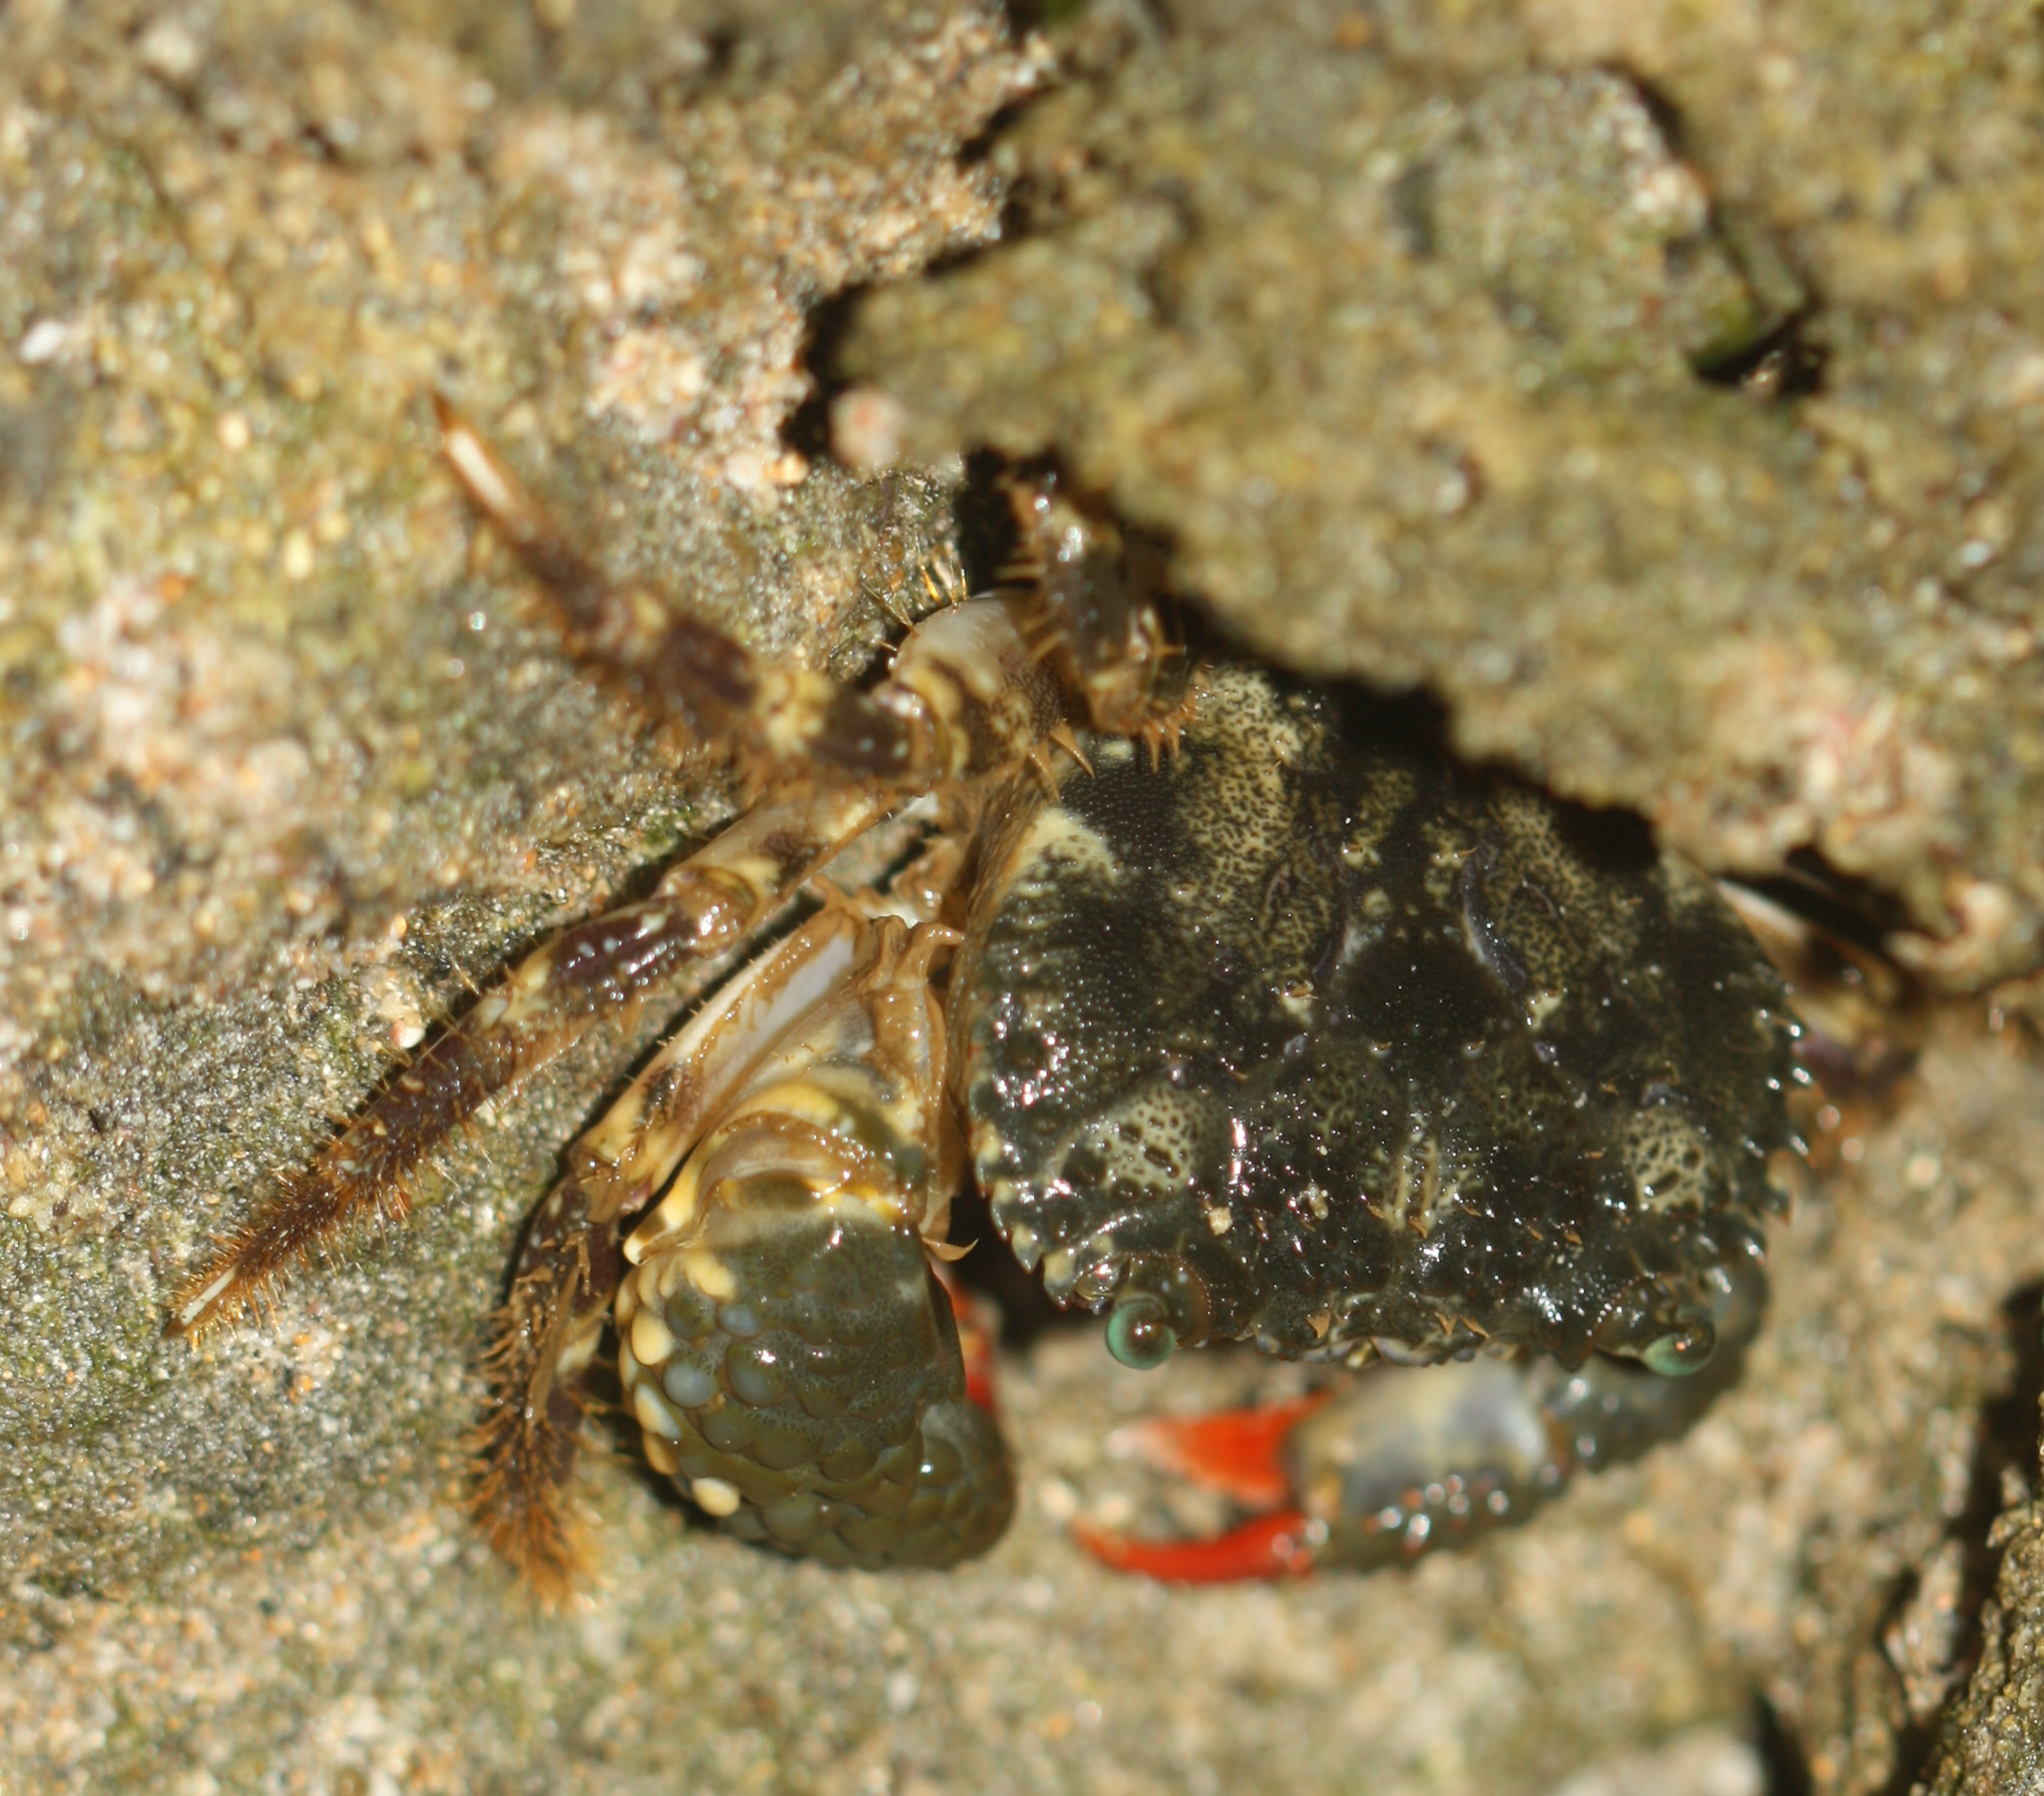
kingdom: Animalia
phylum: Arthropoda
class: Malacostraca
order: Decapoda
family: Eriphiidae
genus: Eriphia
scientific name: Eriphia squamata
